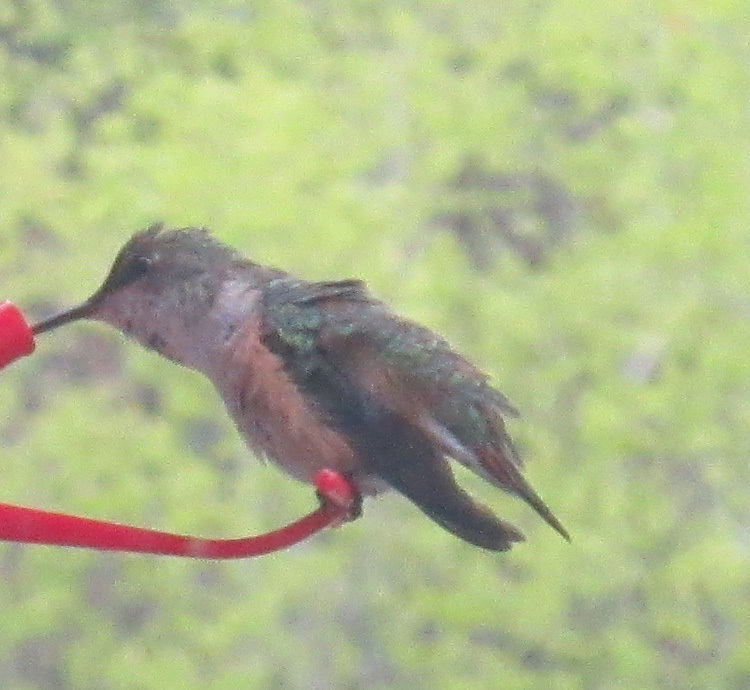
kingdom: Animalia
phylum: Chordata
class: Aves
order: Apodiformes
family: Trochilidae
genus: Selasphorus
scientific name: Selasphorus rufus
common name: Rufous hummingbird
